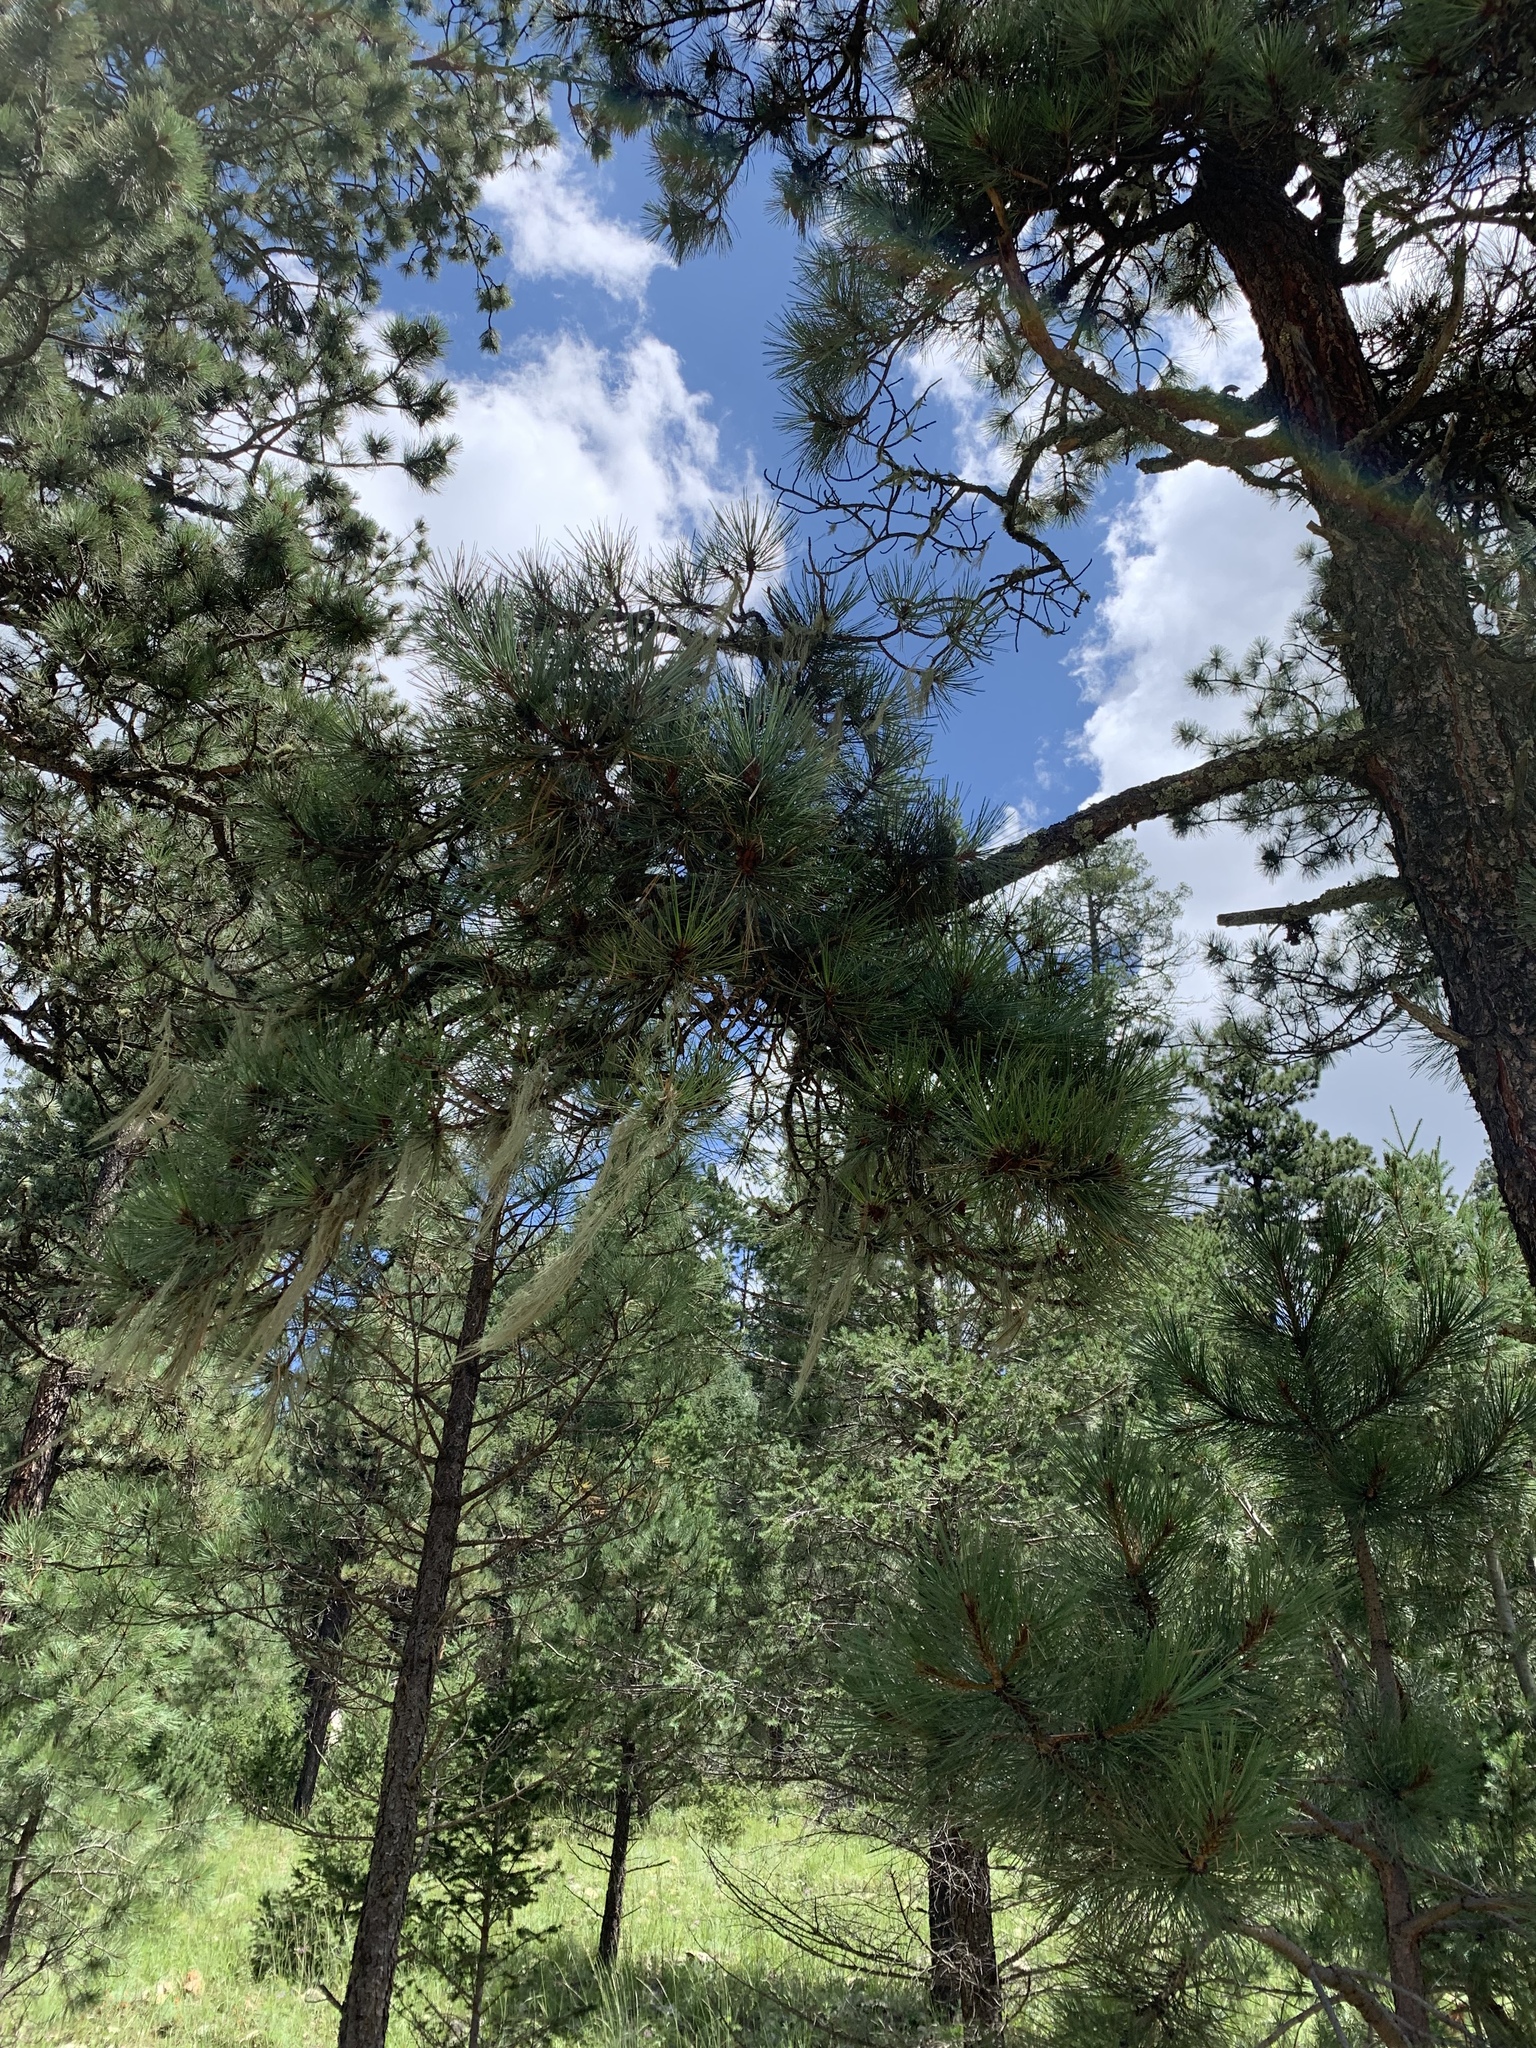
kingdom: Plantae
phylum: Tracheophyta
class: Pinopsida
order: Pinales
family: Pinaceae
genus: Pinus
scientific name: Pinus ponderosa
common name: Western yellow-pine
